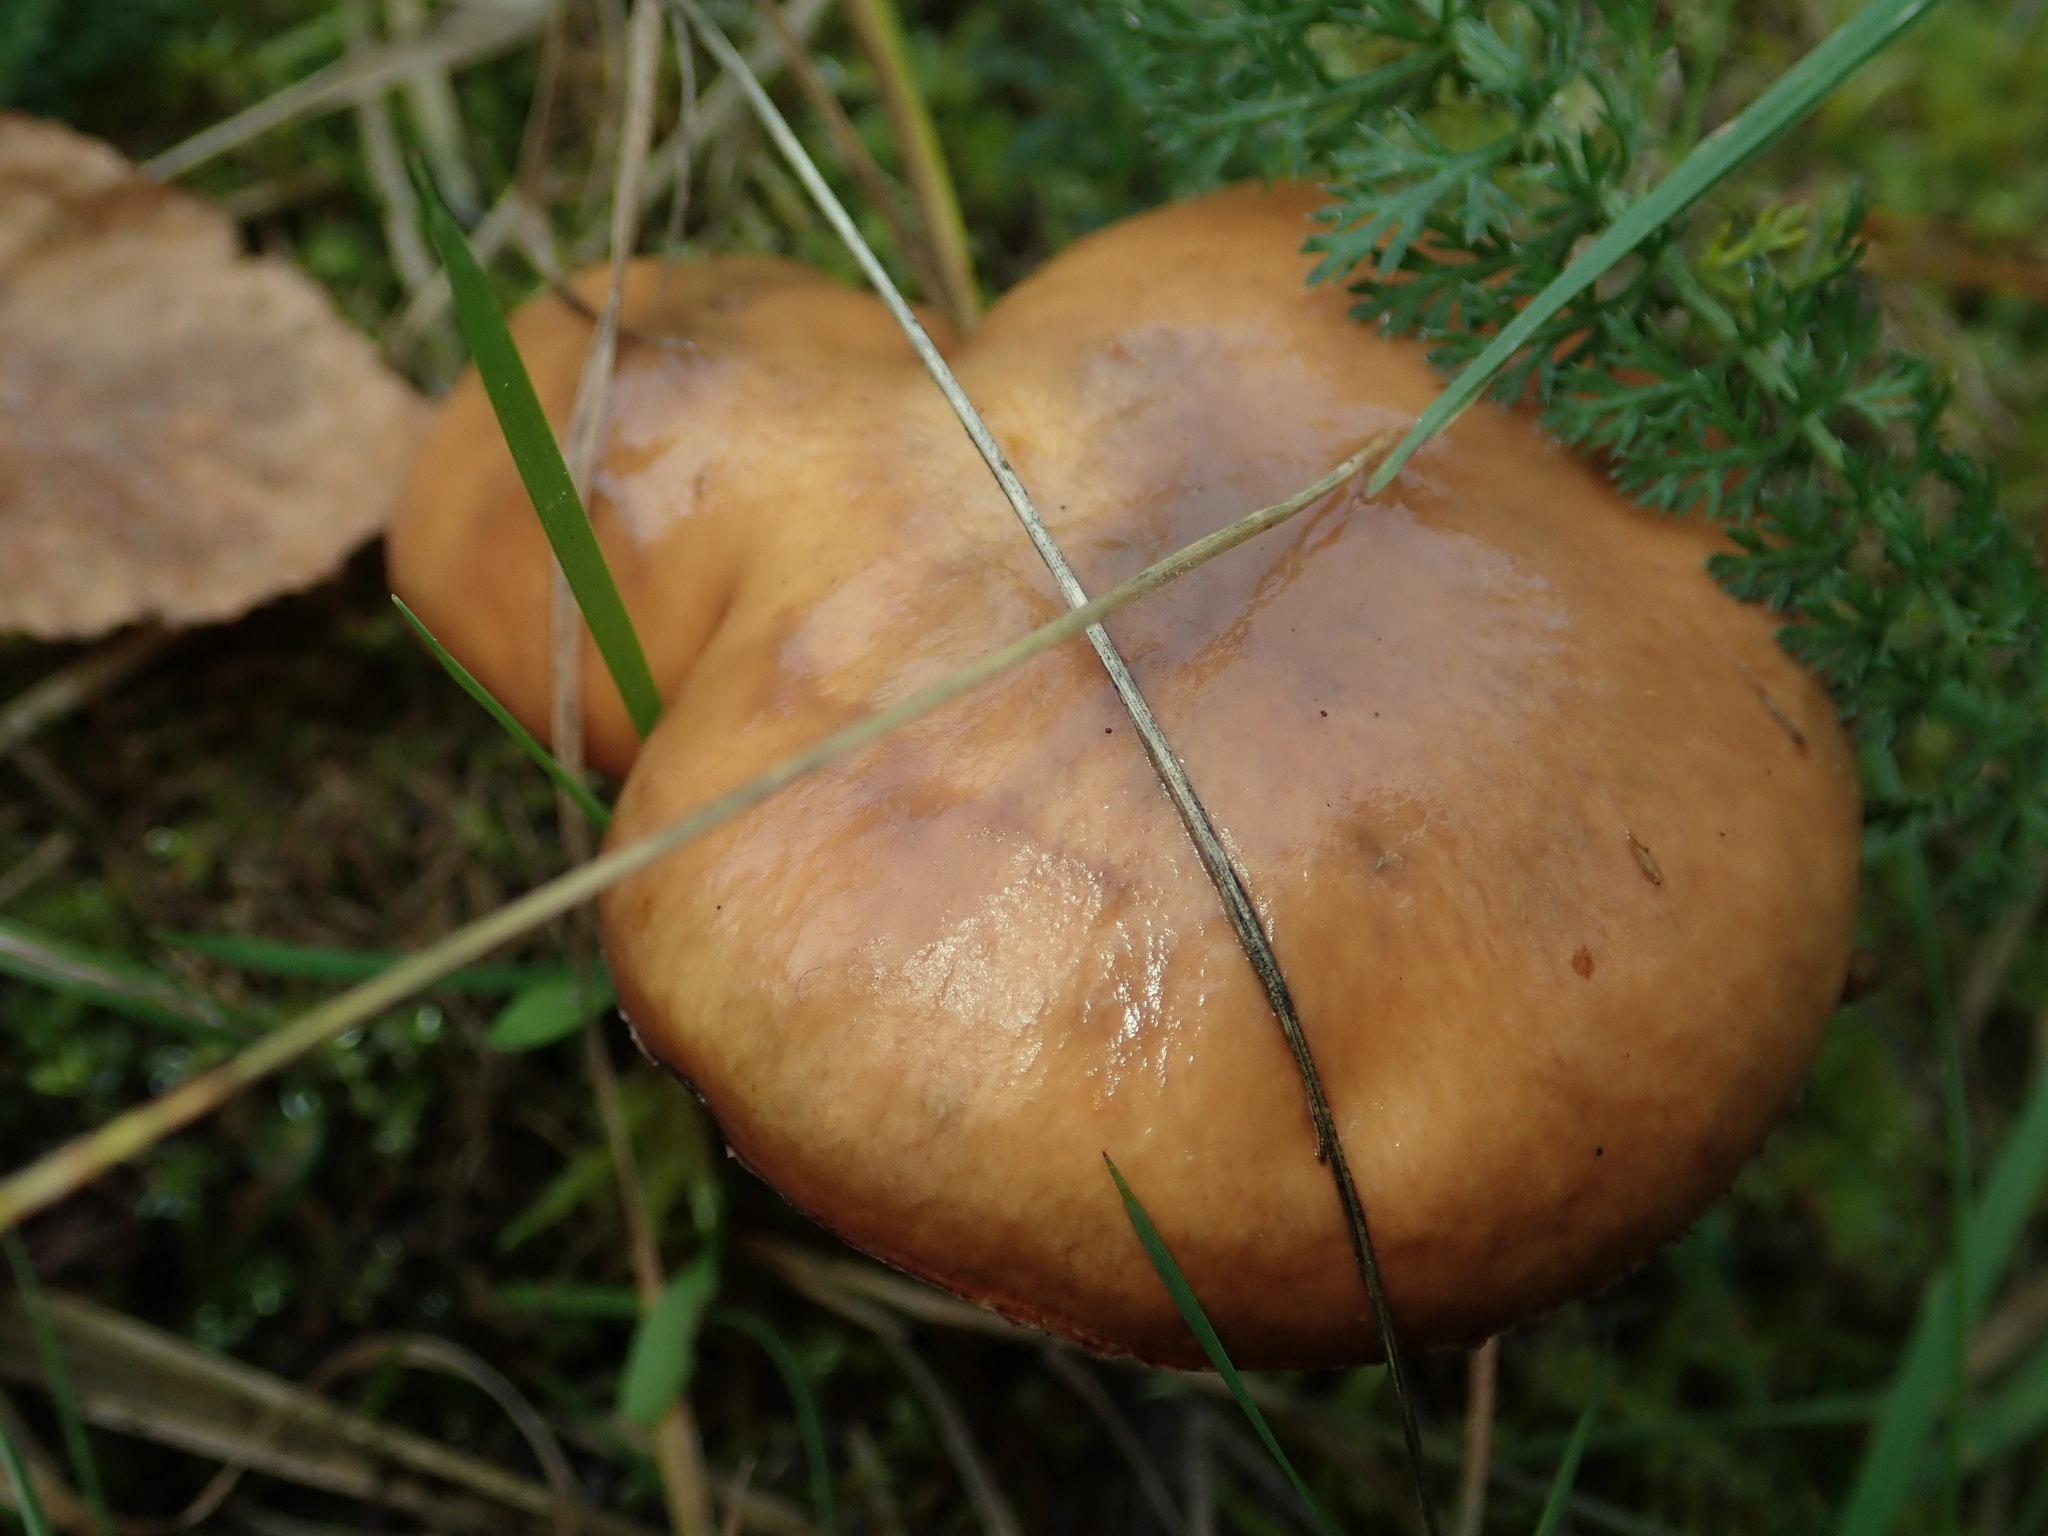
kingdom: Fungi
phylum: Basidiomycota
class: Agaricomycetes
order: Boletales
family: Suillaceae
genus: Suillus
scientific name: Suillus luteus
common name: Slippery jack
